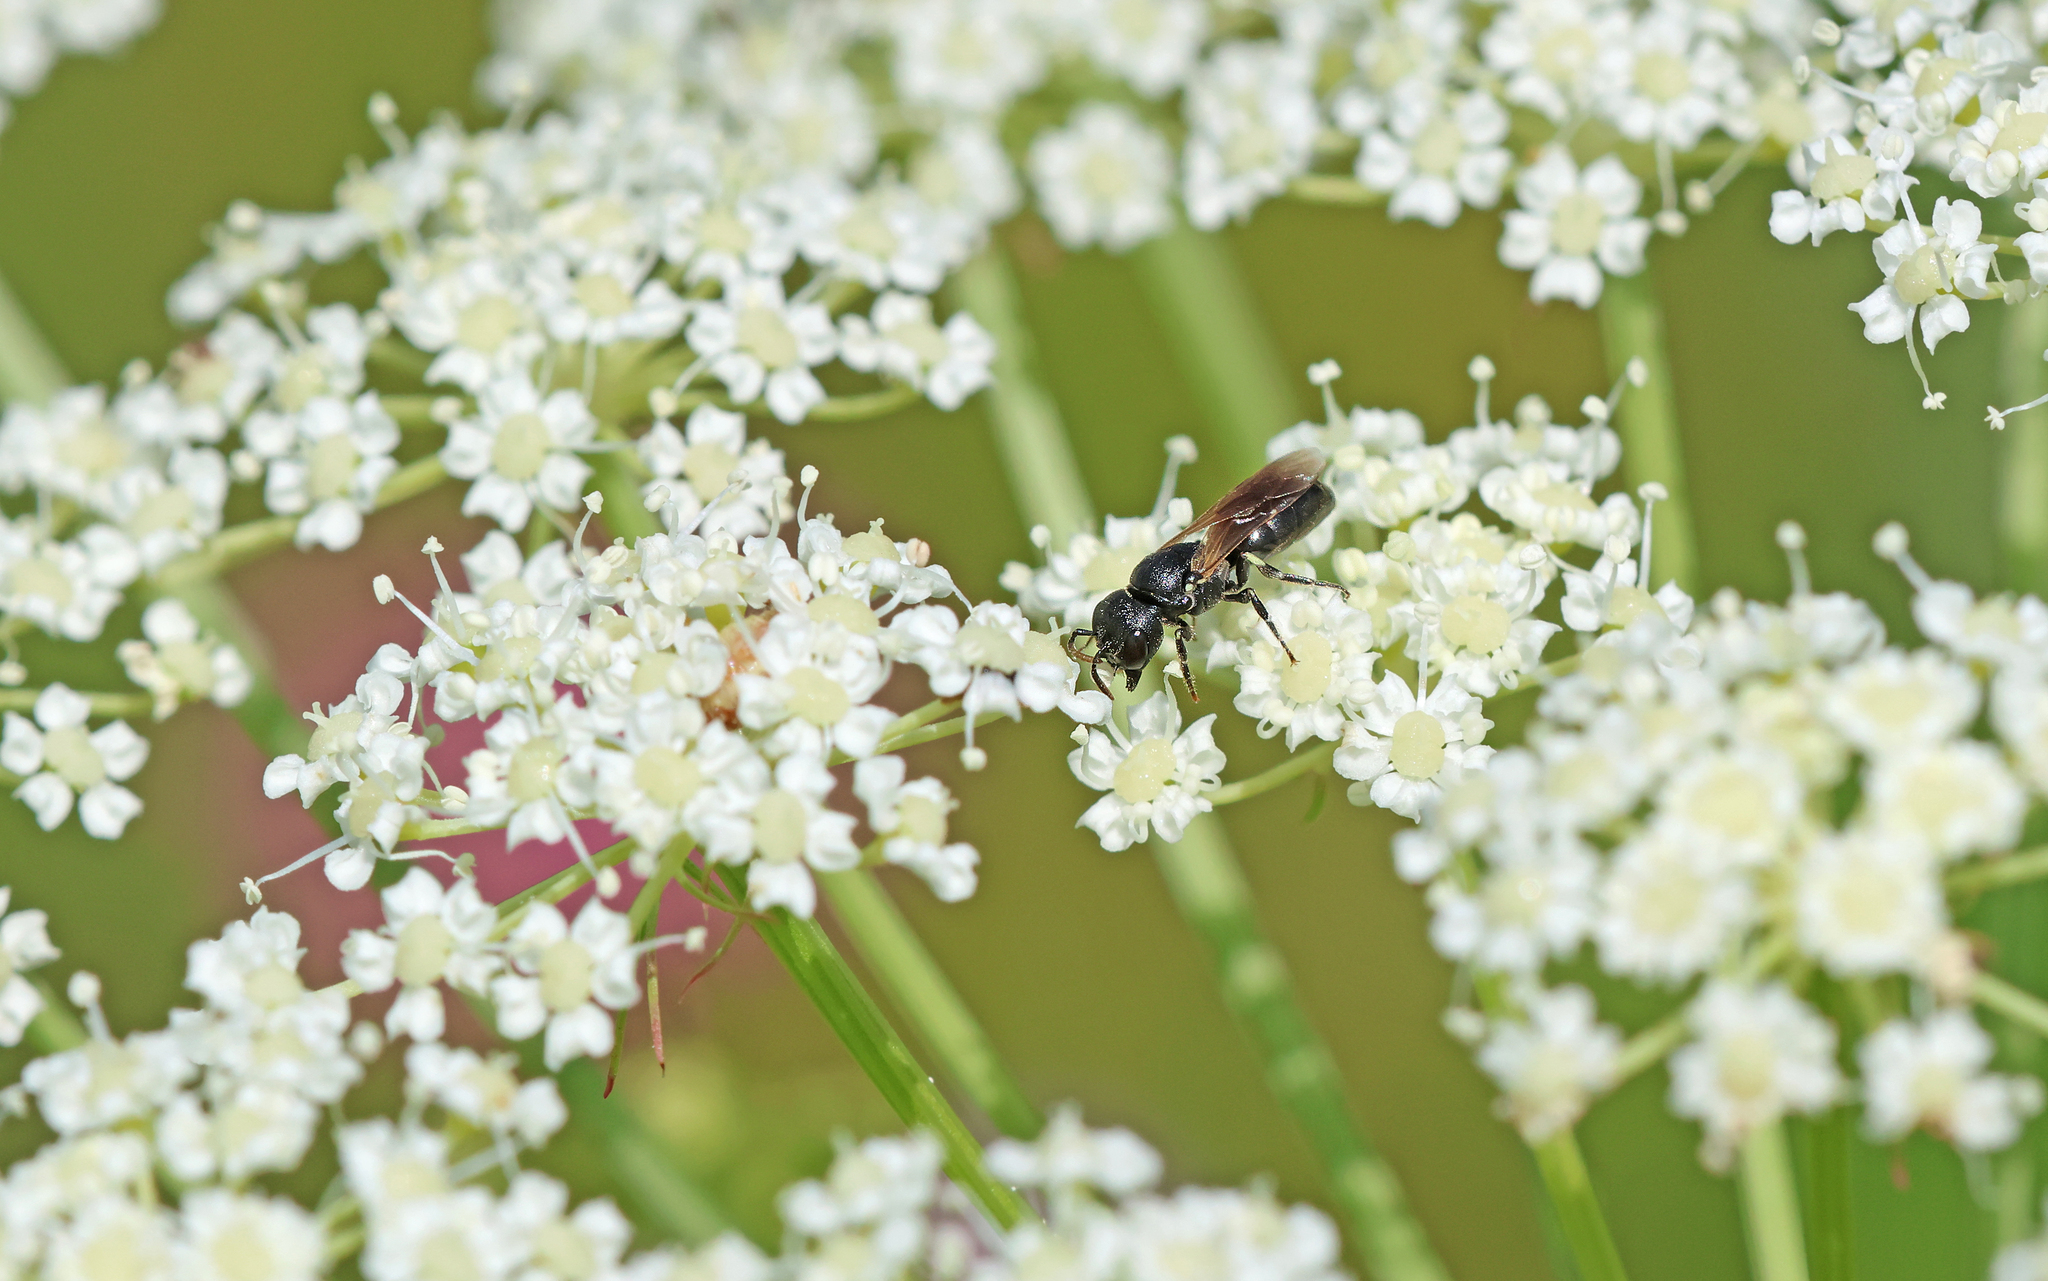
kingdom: Animalia
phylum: Arthropoda
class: Insecta
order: Hymenoptera
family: Colletidae
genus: Hylaeus
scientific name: Hylaeus cornutus
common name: Spined hylaeus
